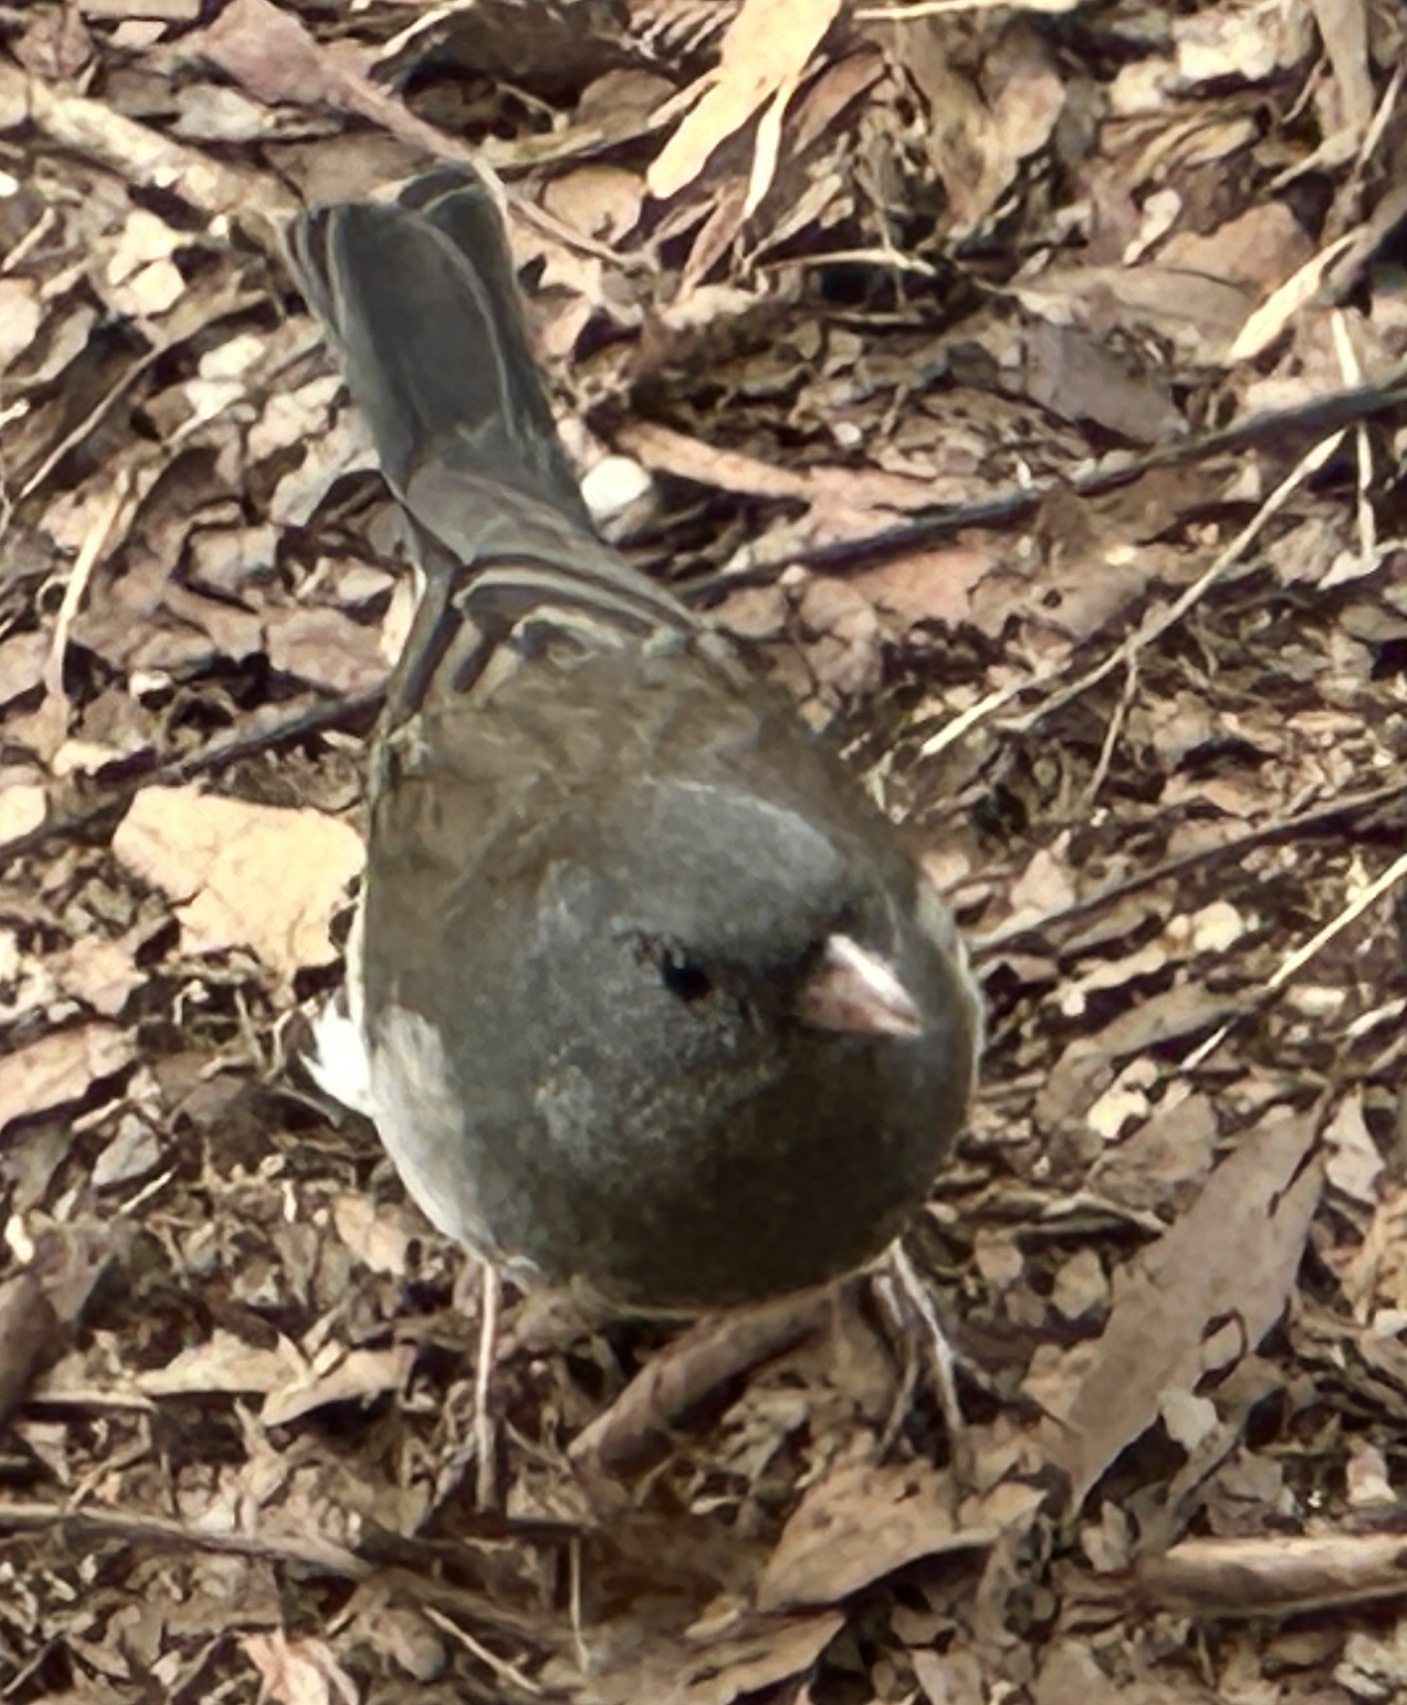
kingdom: Animalia
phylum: Chordata
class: Aves
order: Passeriformes
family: Passerellidae
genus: Junco
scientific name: Junco hyemalis
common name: Dark-eyed junco
